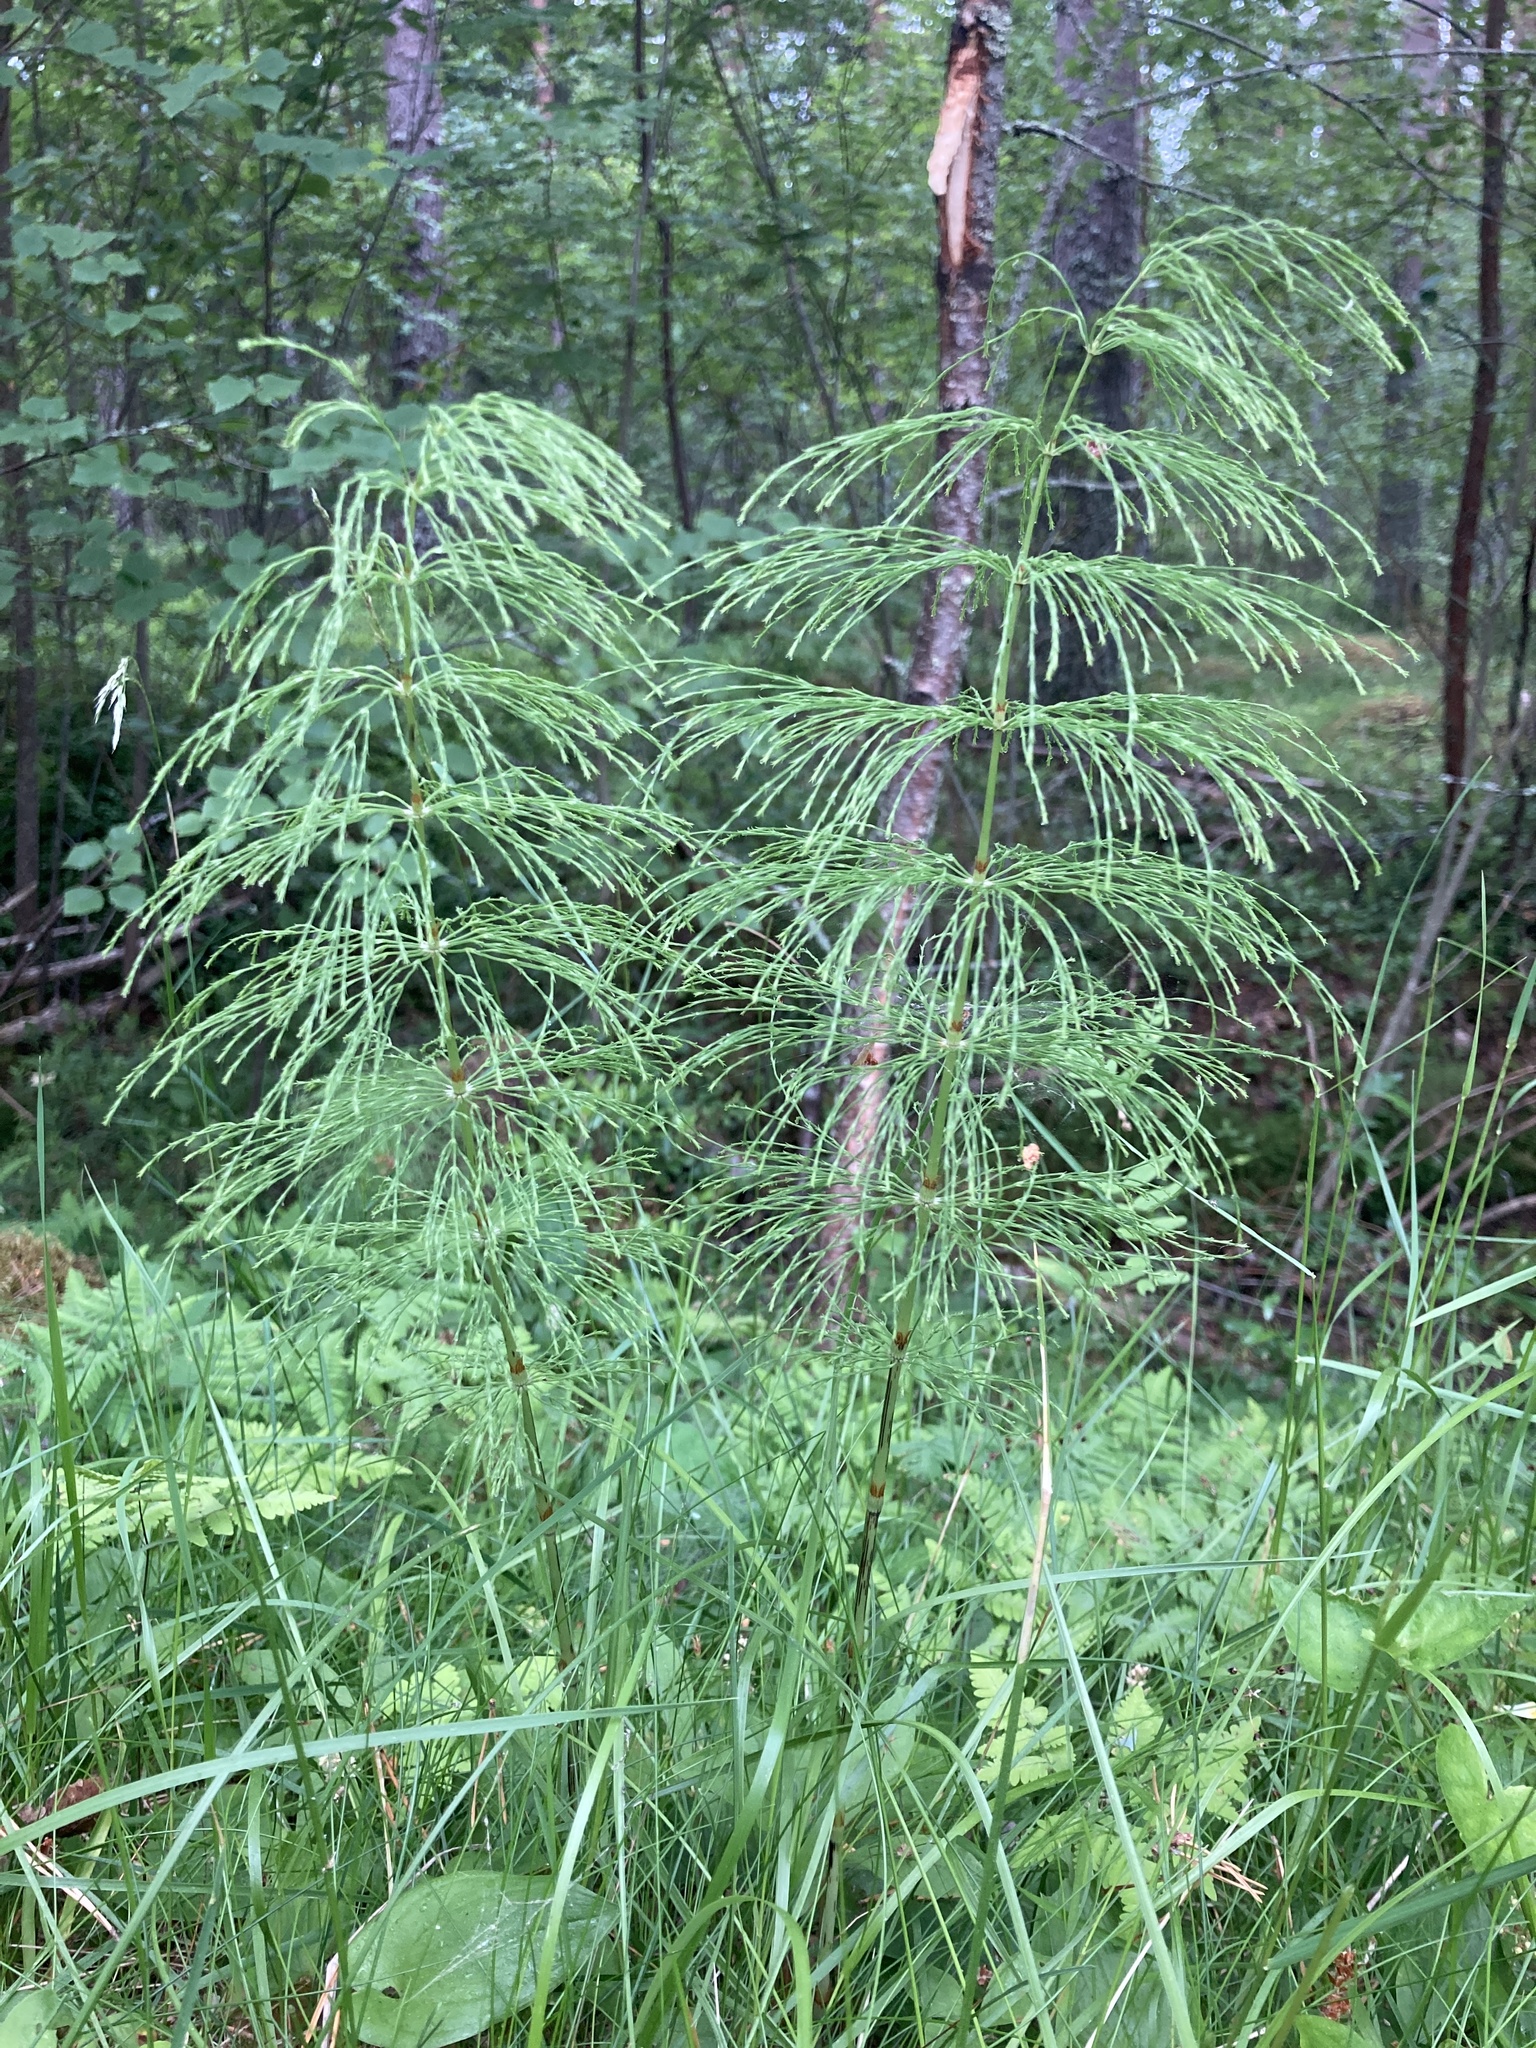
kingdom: Plantae
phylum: Tracheophyta
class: Polypodiopsida
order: Equisetales
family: Equisetaceae
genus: Equisetum
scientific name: Equisetum sylvaticum
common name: Wood horsetail
